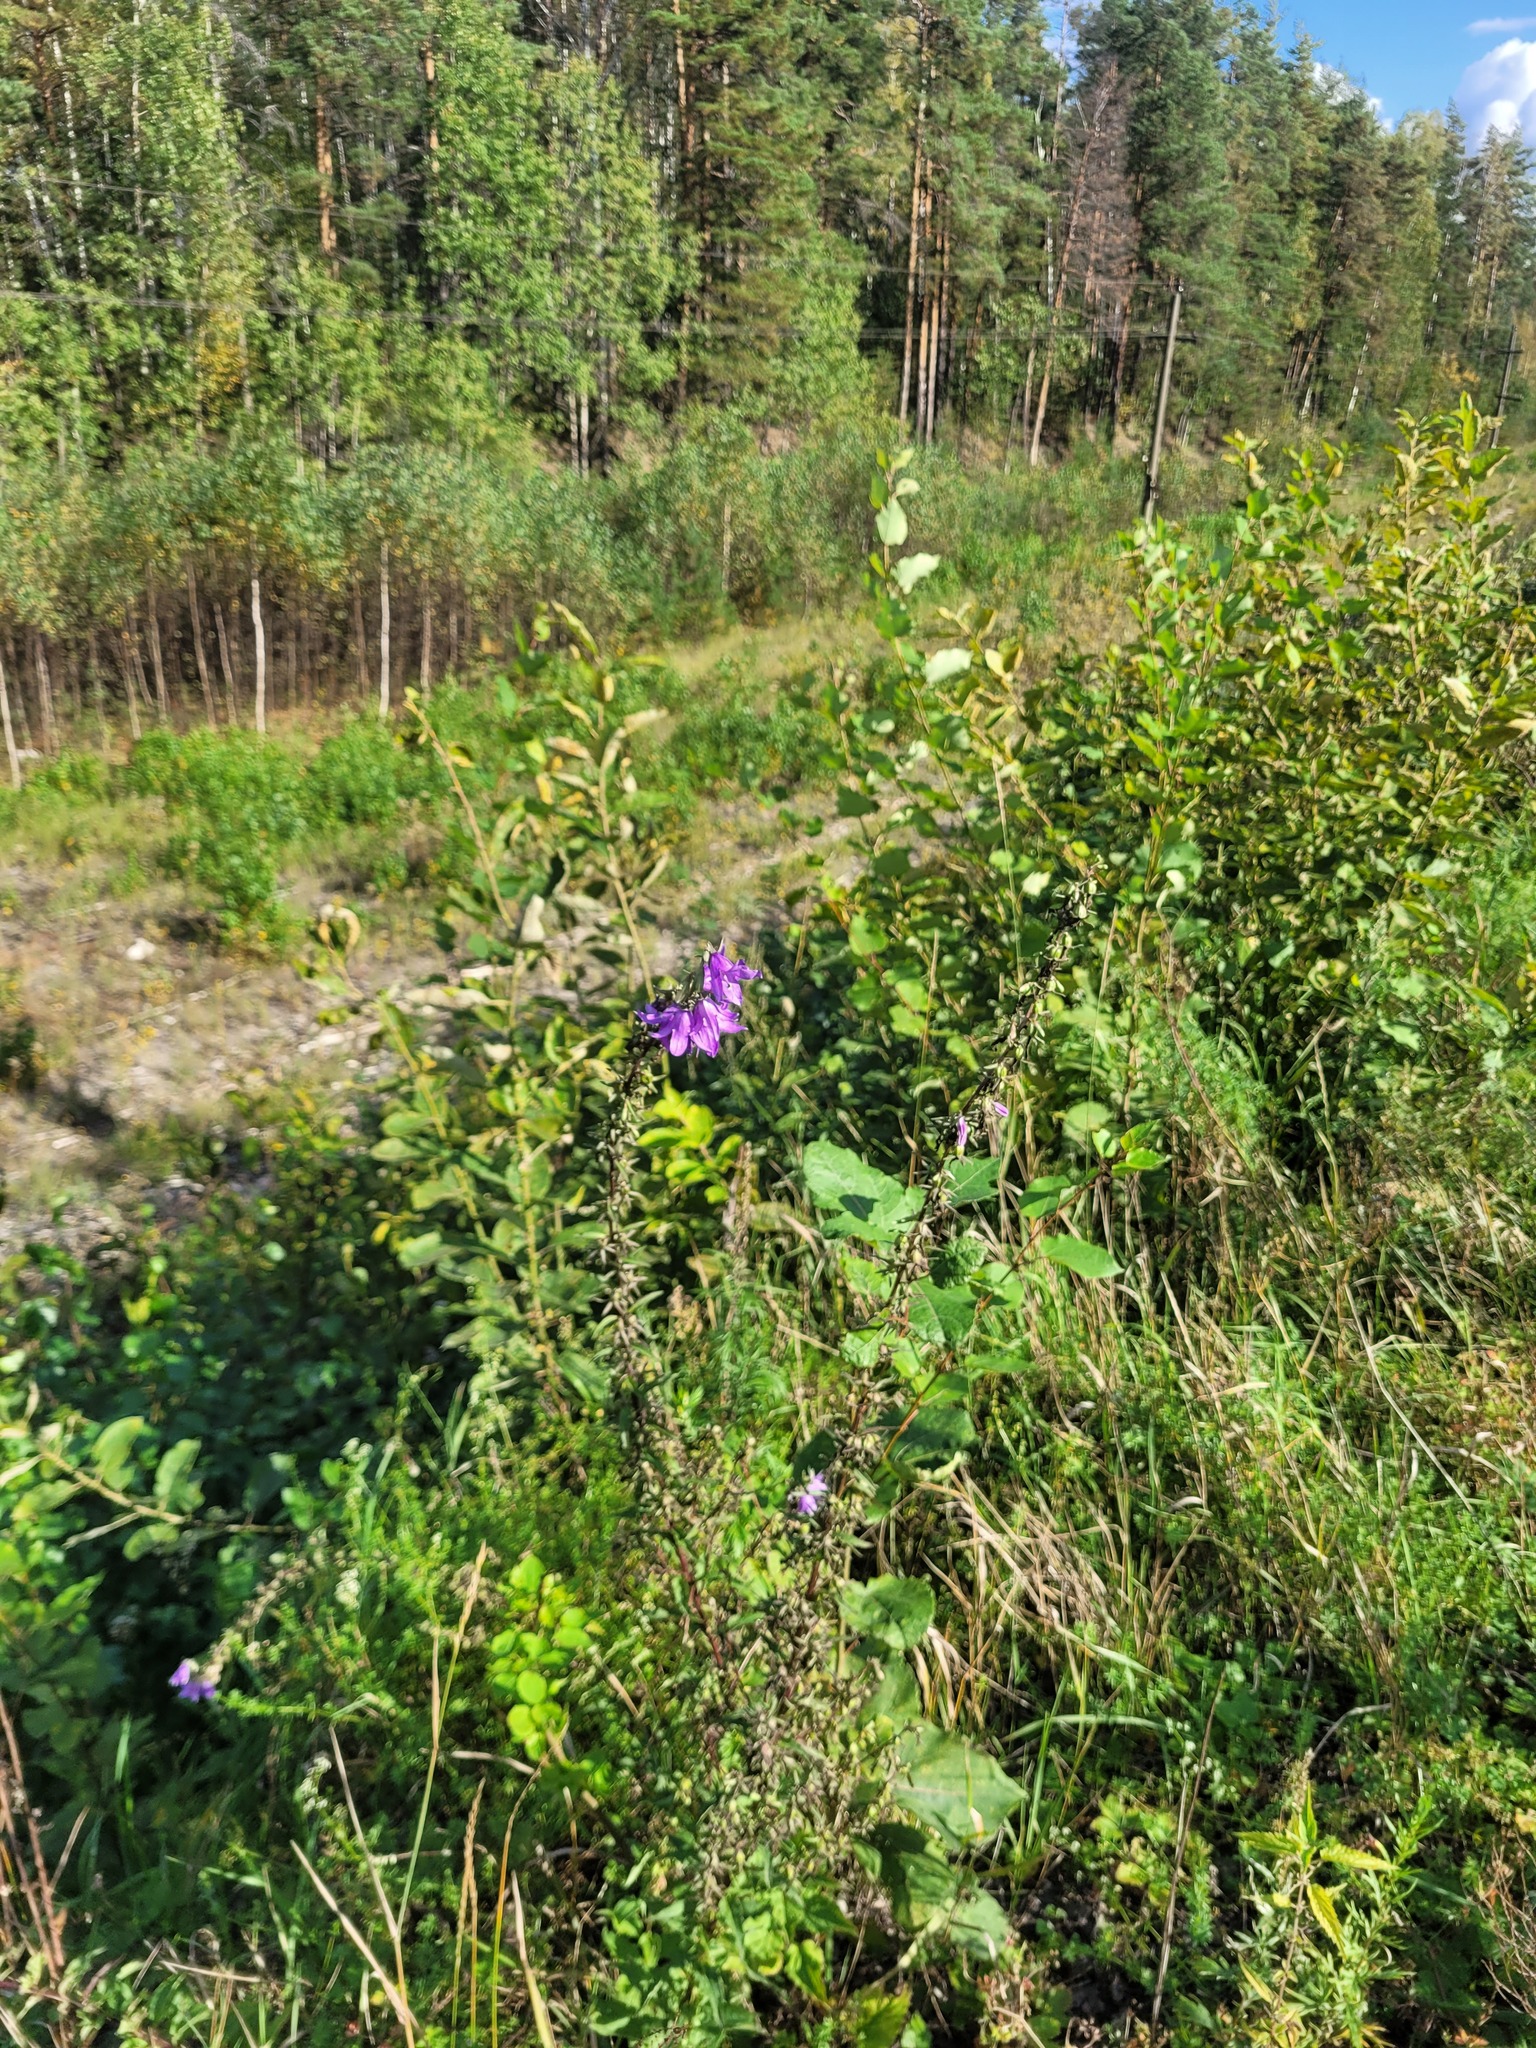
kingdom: Plantae
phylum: Tracheophyta
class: Magnoliopsida
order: Asterales
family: Campanulaceae
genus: Campanula
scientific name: Campanula rapunculoides
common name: Creeping bellflower
